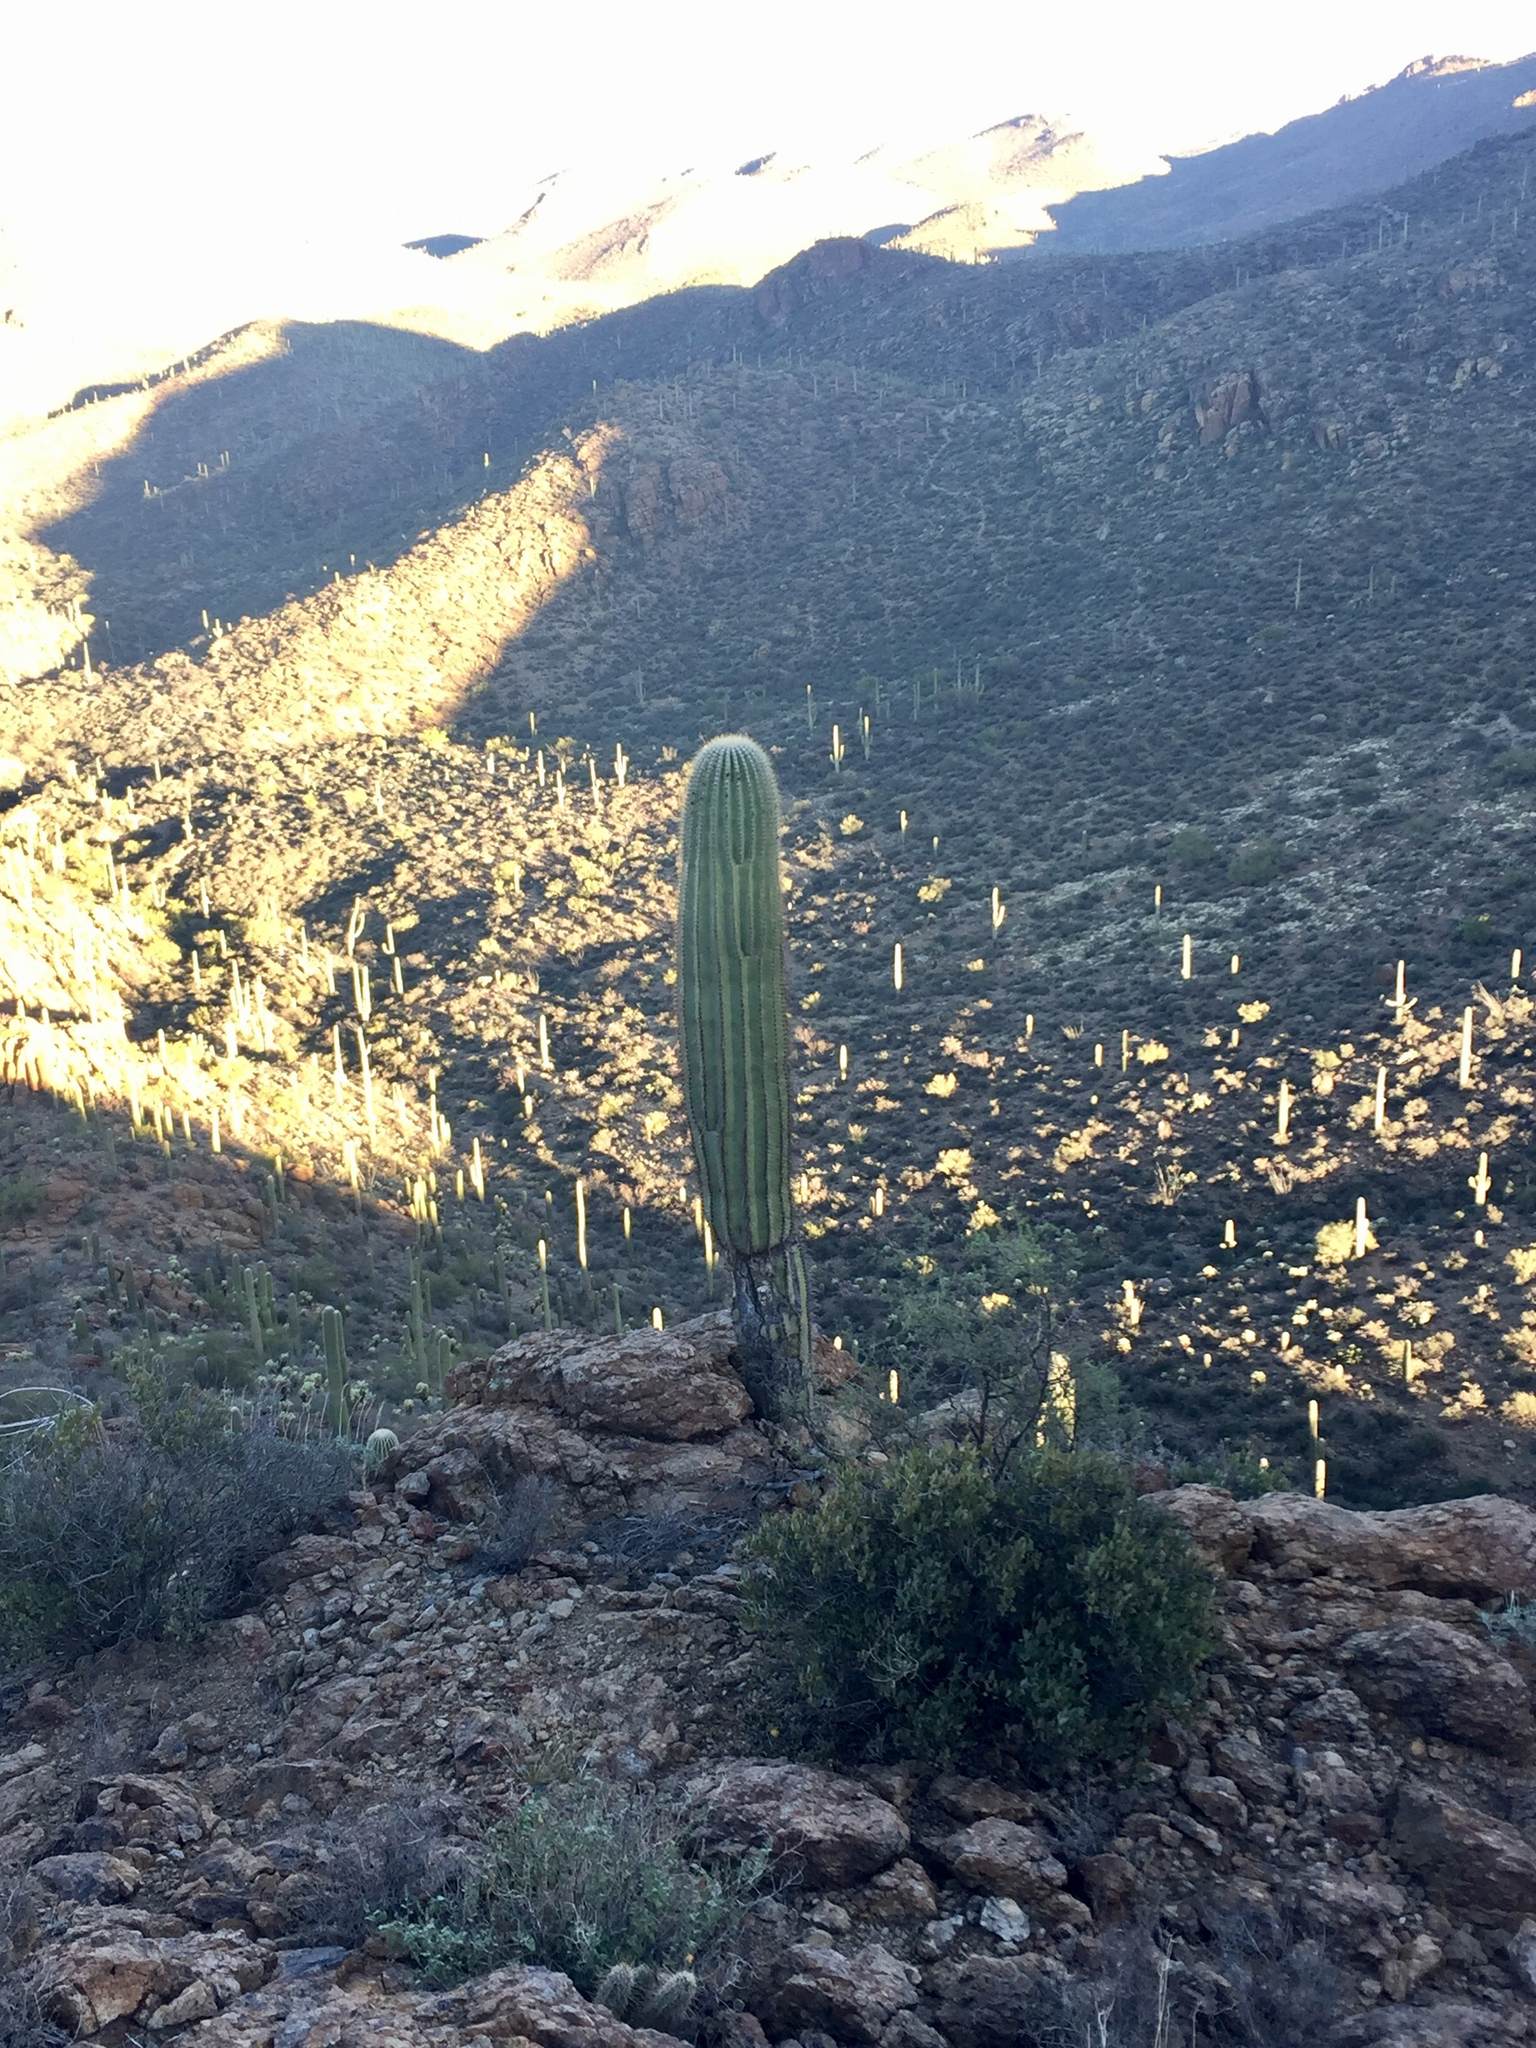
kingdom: Plantae
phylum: Tracheophyta
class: Magnoliopsida
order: Caryophyllales
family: Cactaceae
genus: Carnegiea
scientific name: Carnegiea gigantea
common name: Saguaro
